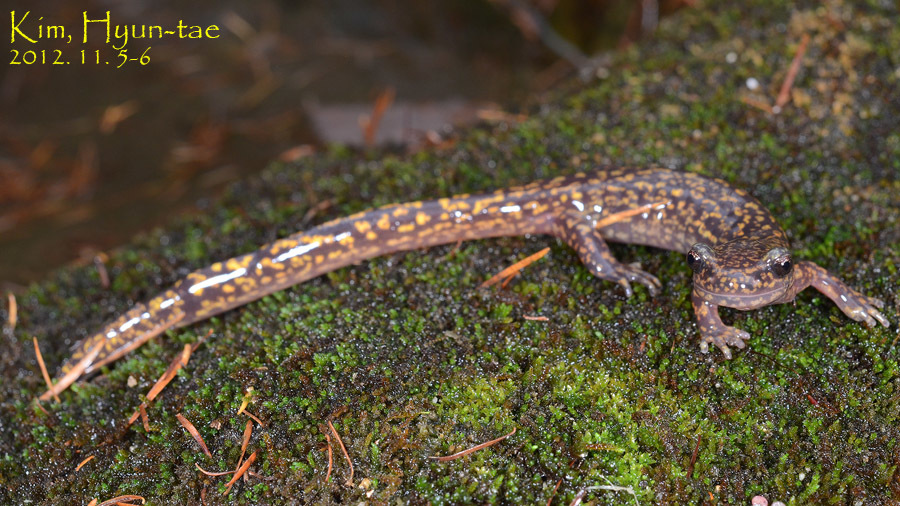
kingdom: Animalia
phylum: Chordata
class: Amphibia
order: Caudata
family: Hynobiidae
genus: Onychodactylus
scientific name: Onychodactylus koreanus
